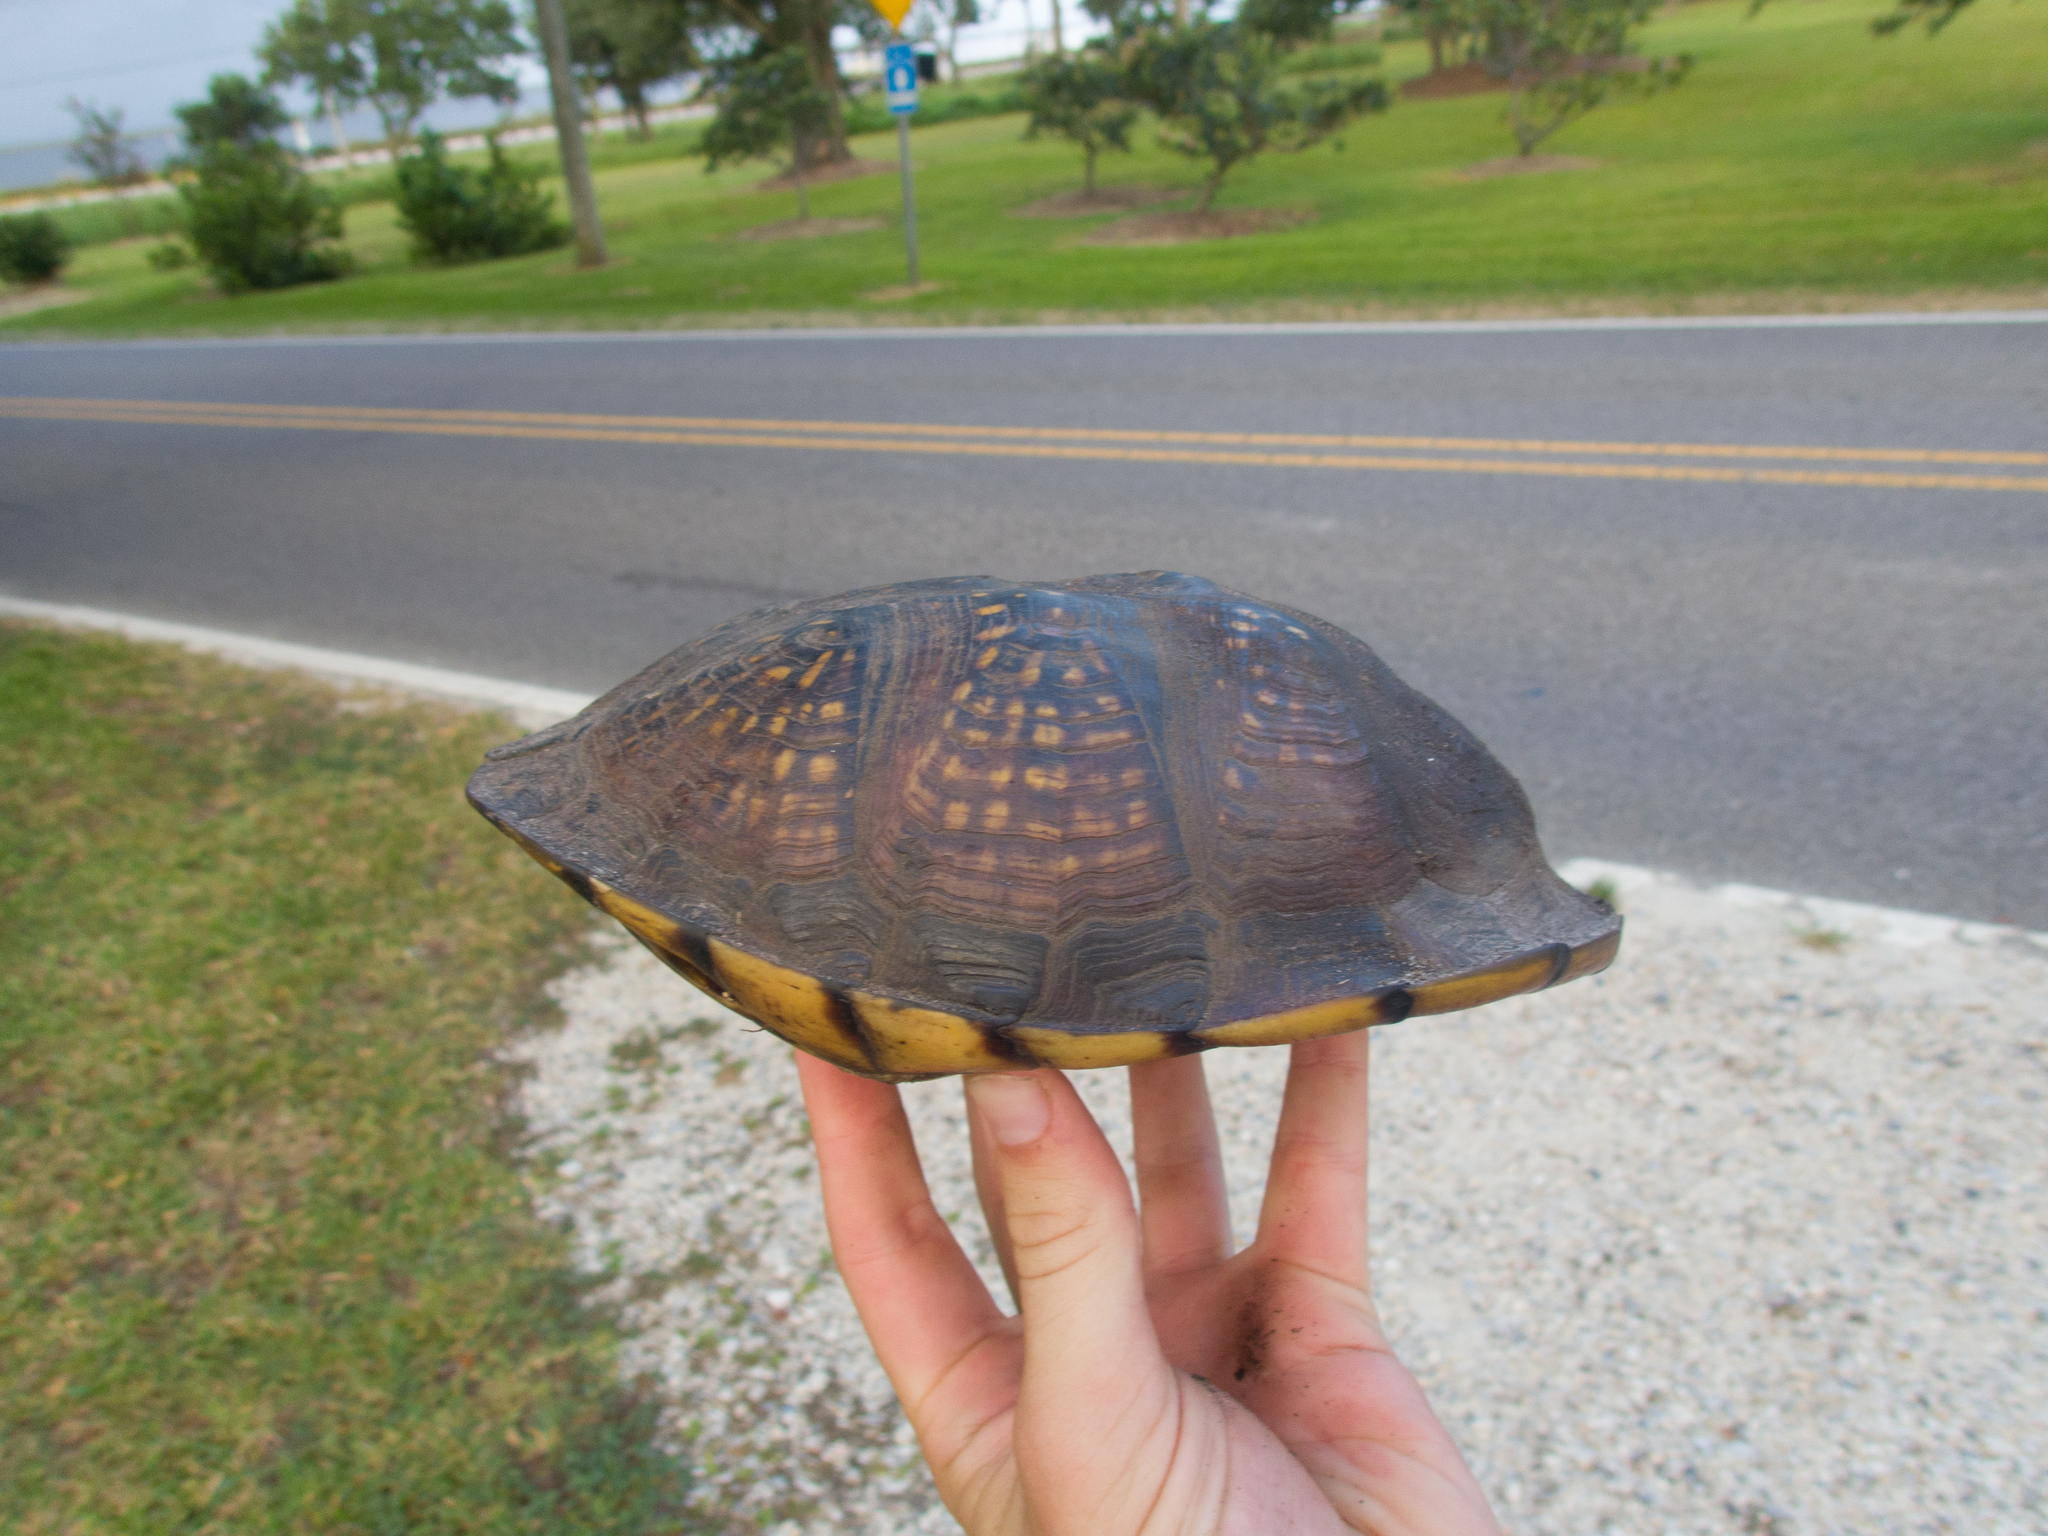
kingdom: Animalia
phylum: Chordata
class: Testudines
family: Emydidae
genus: Terrapene
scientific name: Terrapene carolina
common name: Common box turtle
